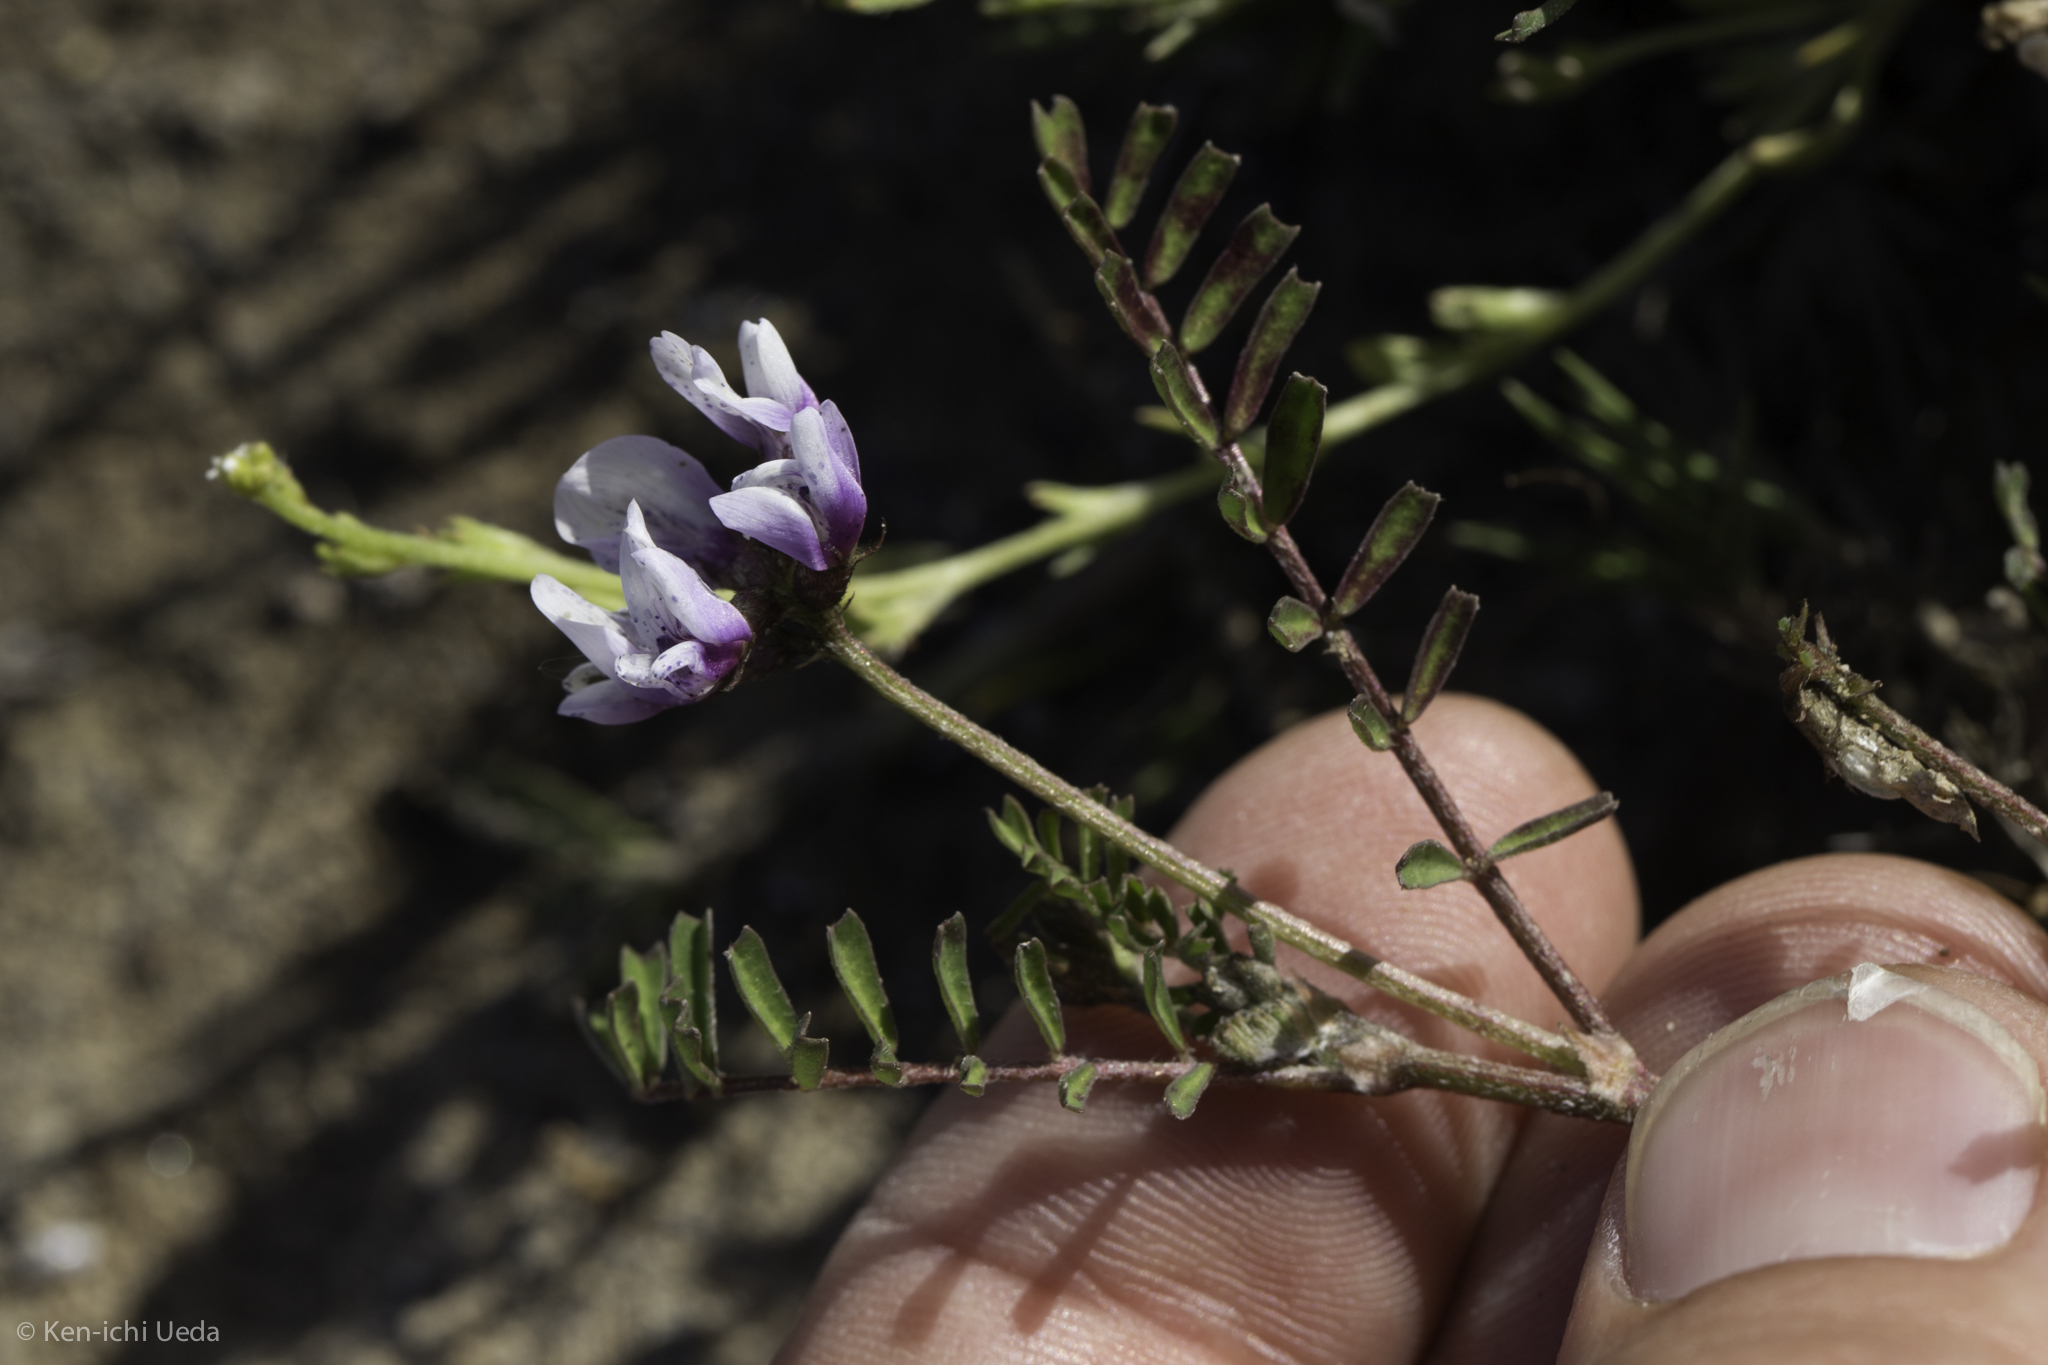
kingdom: Plantae
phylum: Tracheophyta
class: Magnoliopsida
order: Fabales
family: Fabaceae
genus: Astragalus
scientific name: Astragalus tener
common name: Gray slender milkvetch
